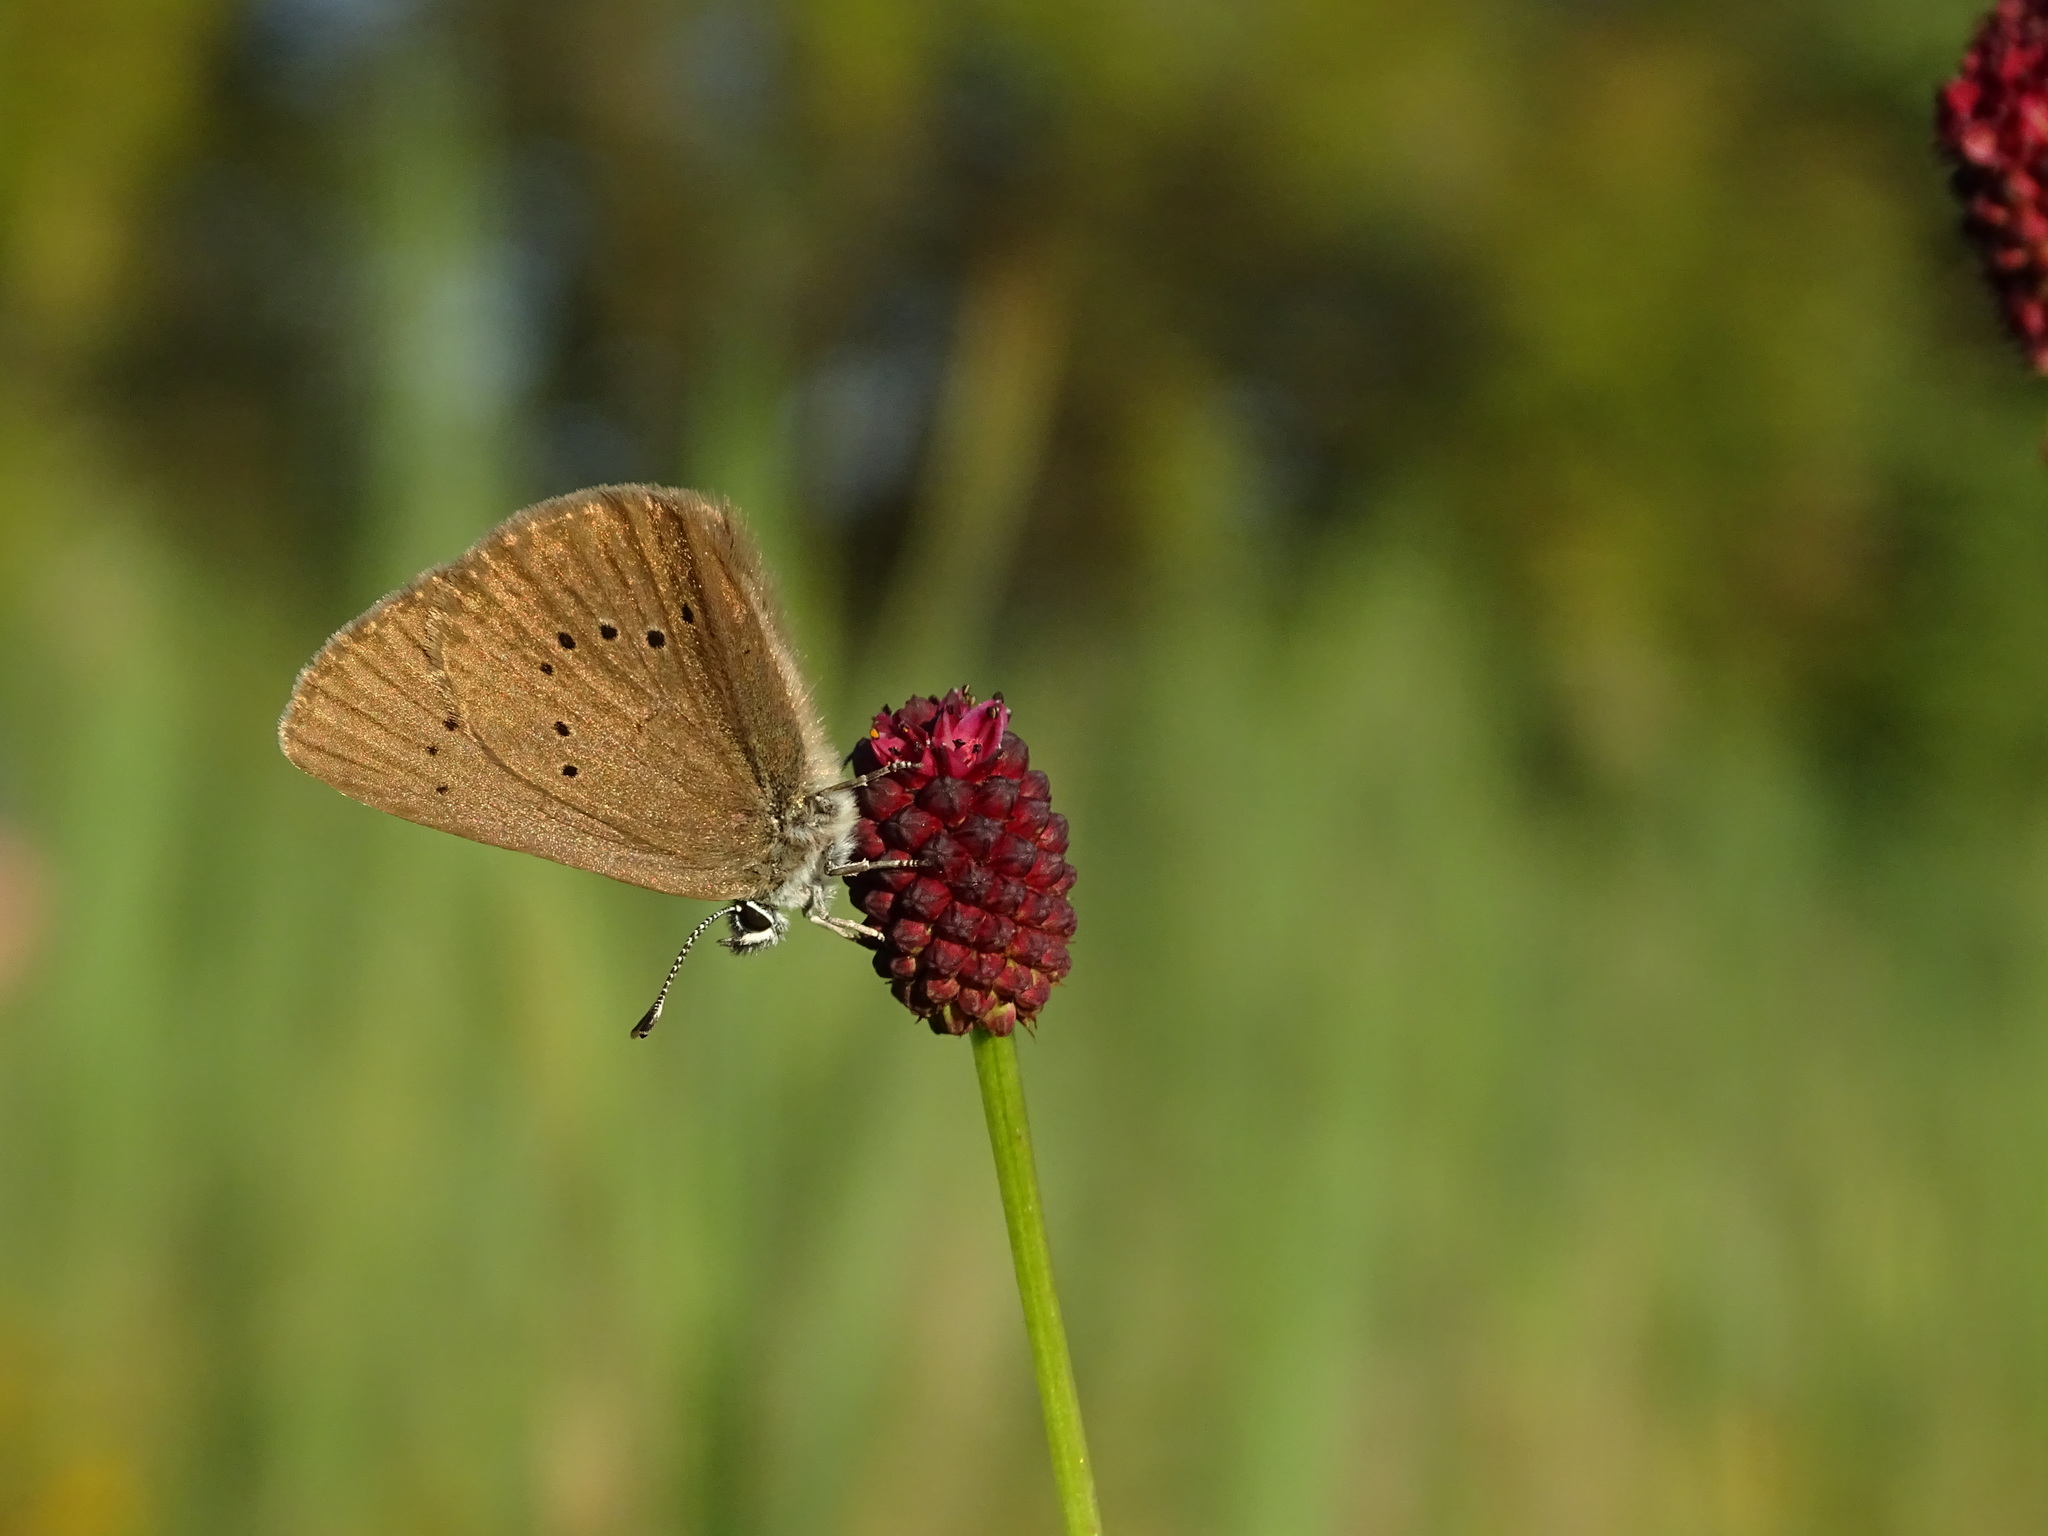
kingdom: Animalia
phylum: Arthropoda
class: Insecta
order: Lepidoptera
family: Lycaenidae
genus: Maculinea
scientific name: Maculinea nausithous
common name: Dusky large blue
